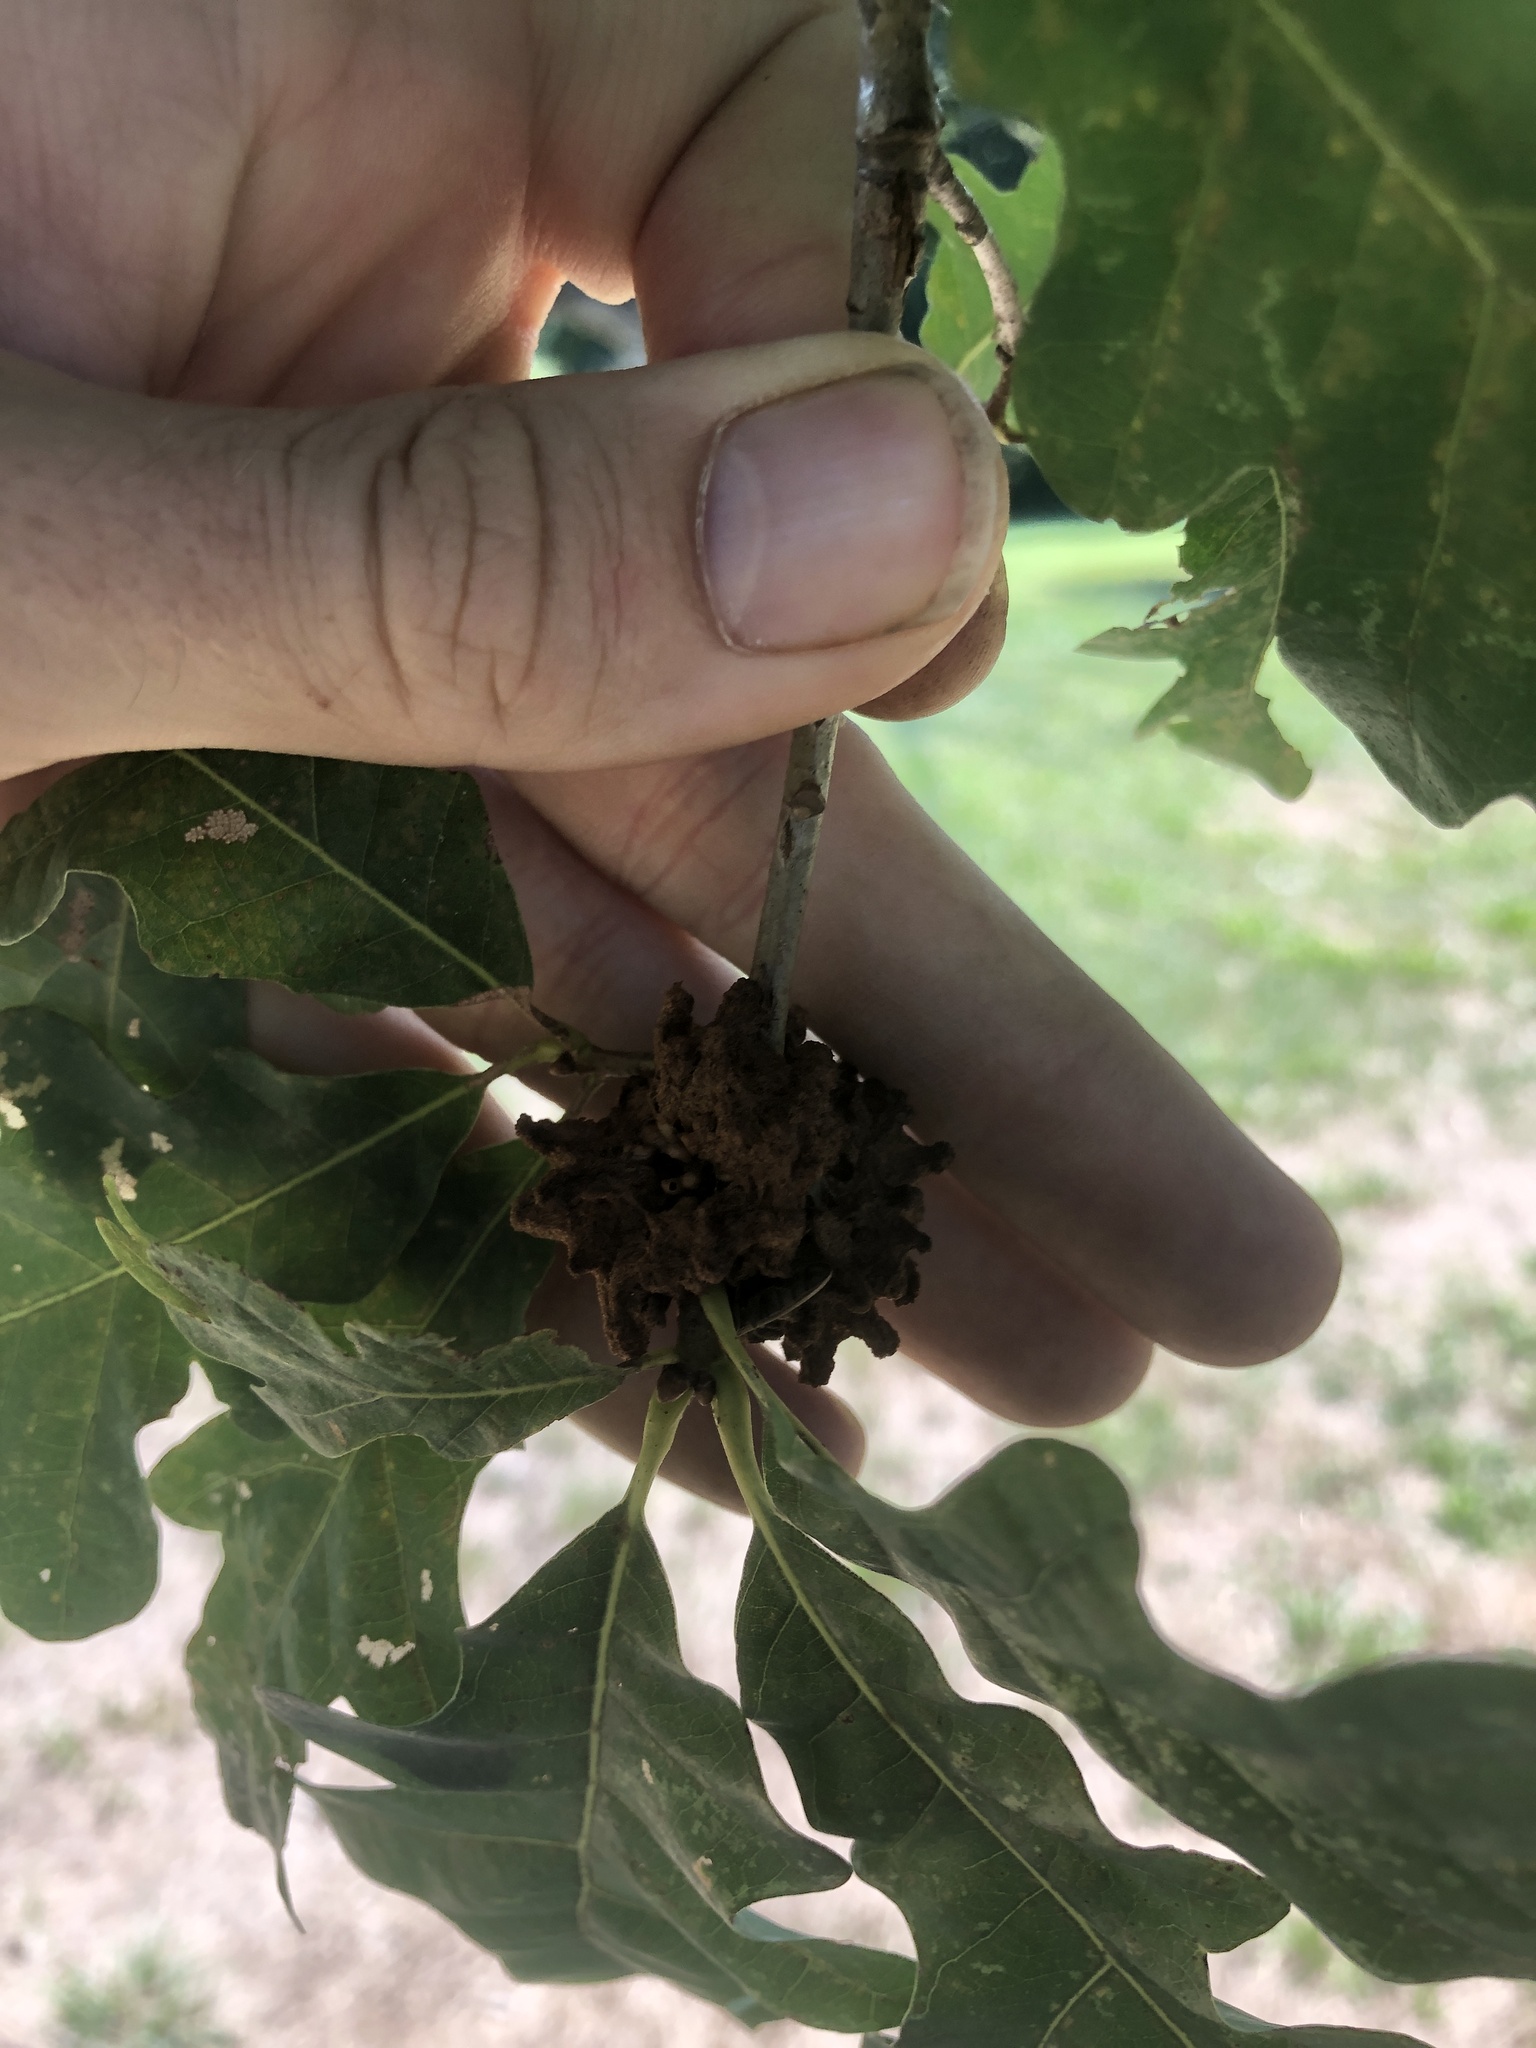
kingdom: Animalia
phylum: Arthropoda
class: Insecta
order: Hymenoptera
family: Cynipidae
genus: Callirhytis
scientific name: Callirhytis
